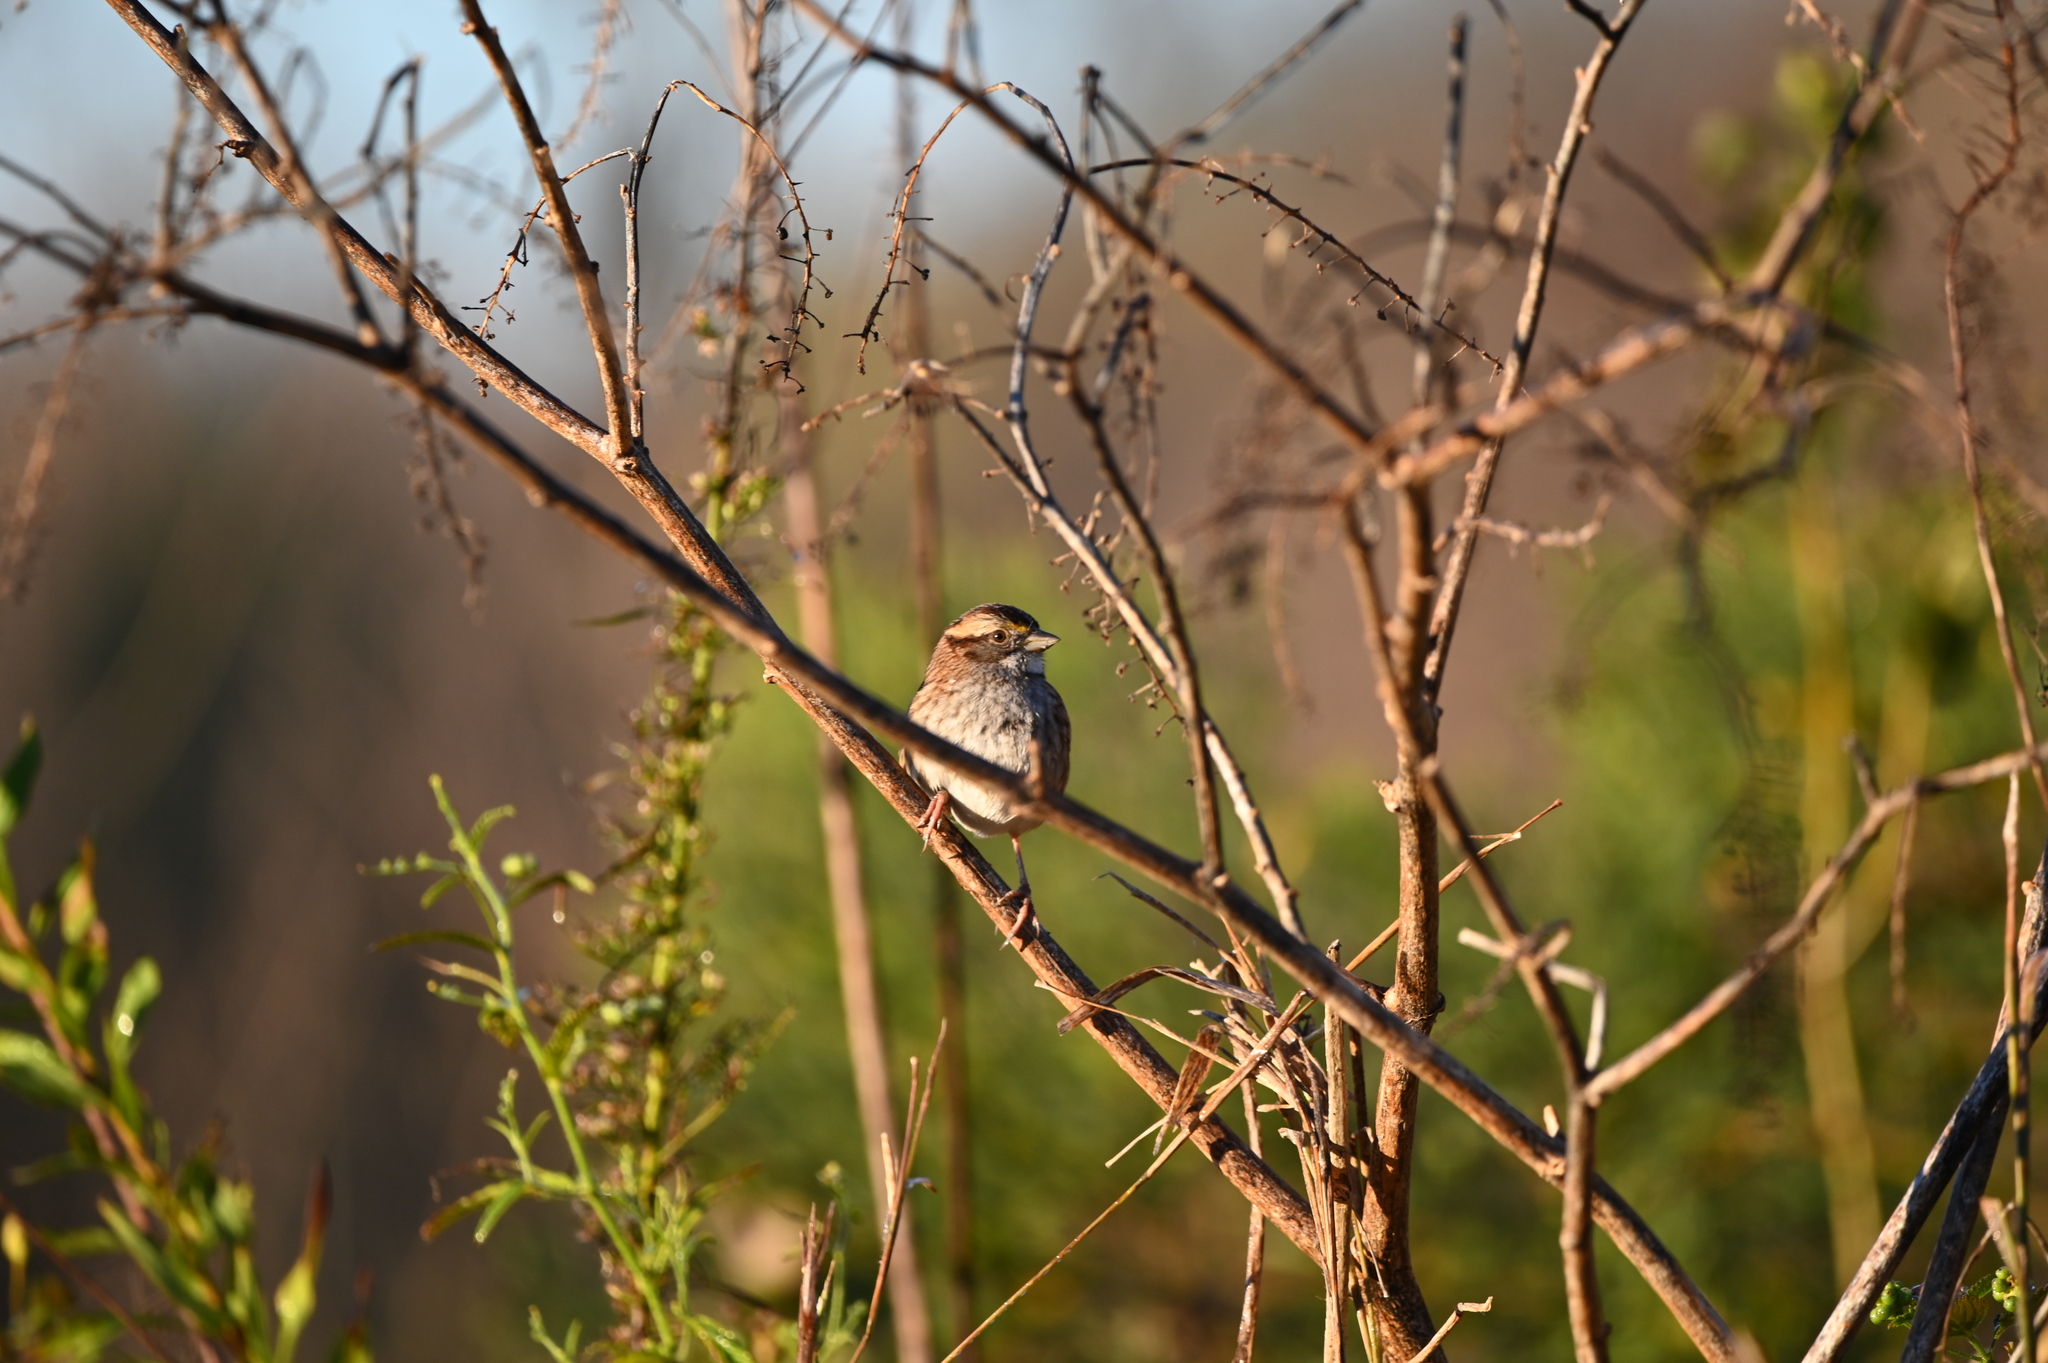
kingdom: Animalia
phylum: Chordata
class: Aves
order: Passeriformes
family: Passerellidae
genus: Zonotrichia
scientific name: Zonotrichia albicollis
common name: White-throated sparrow
